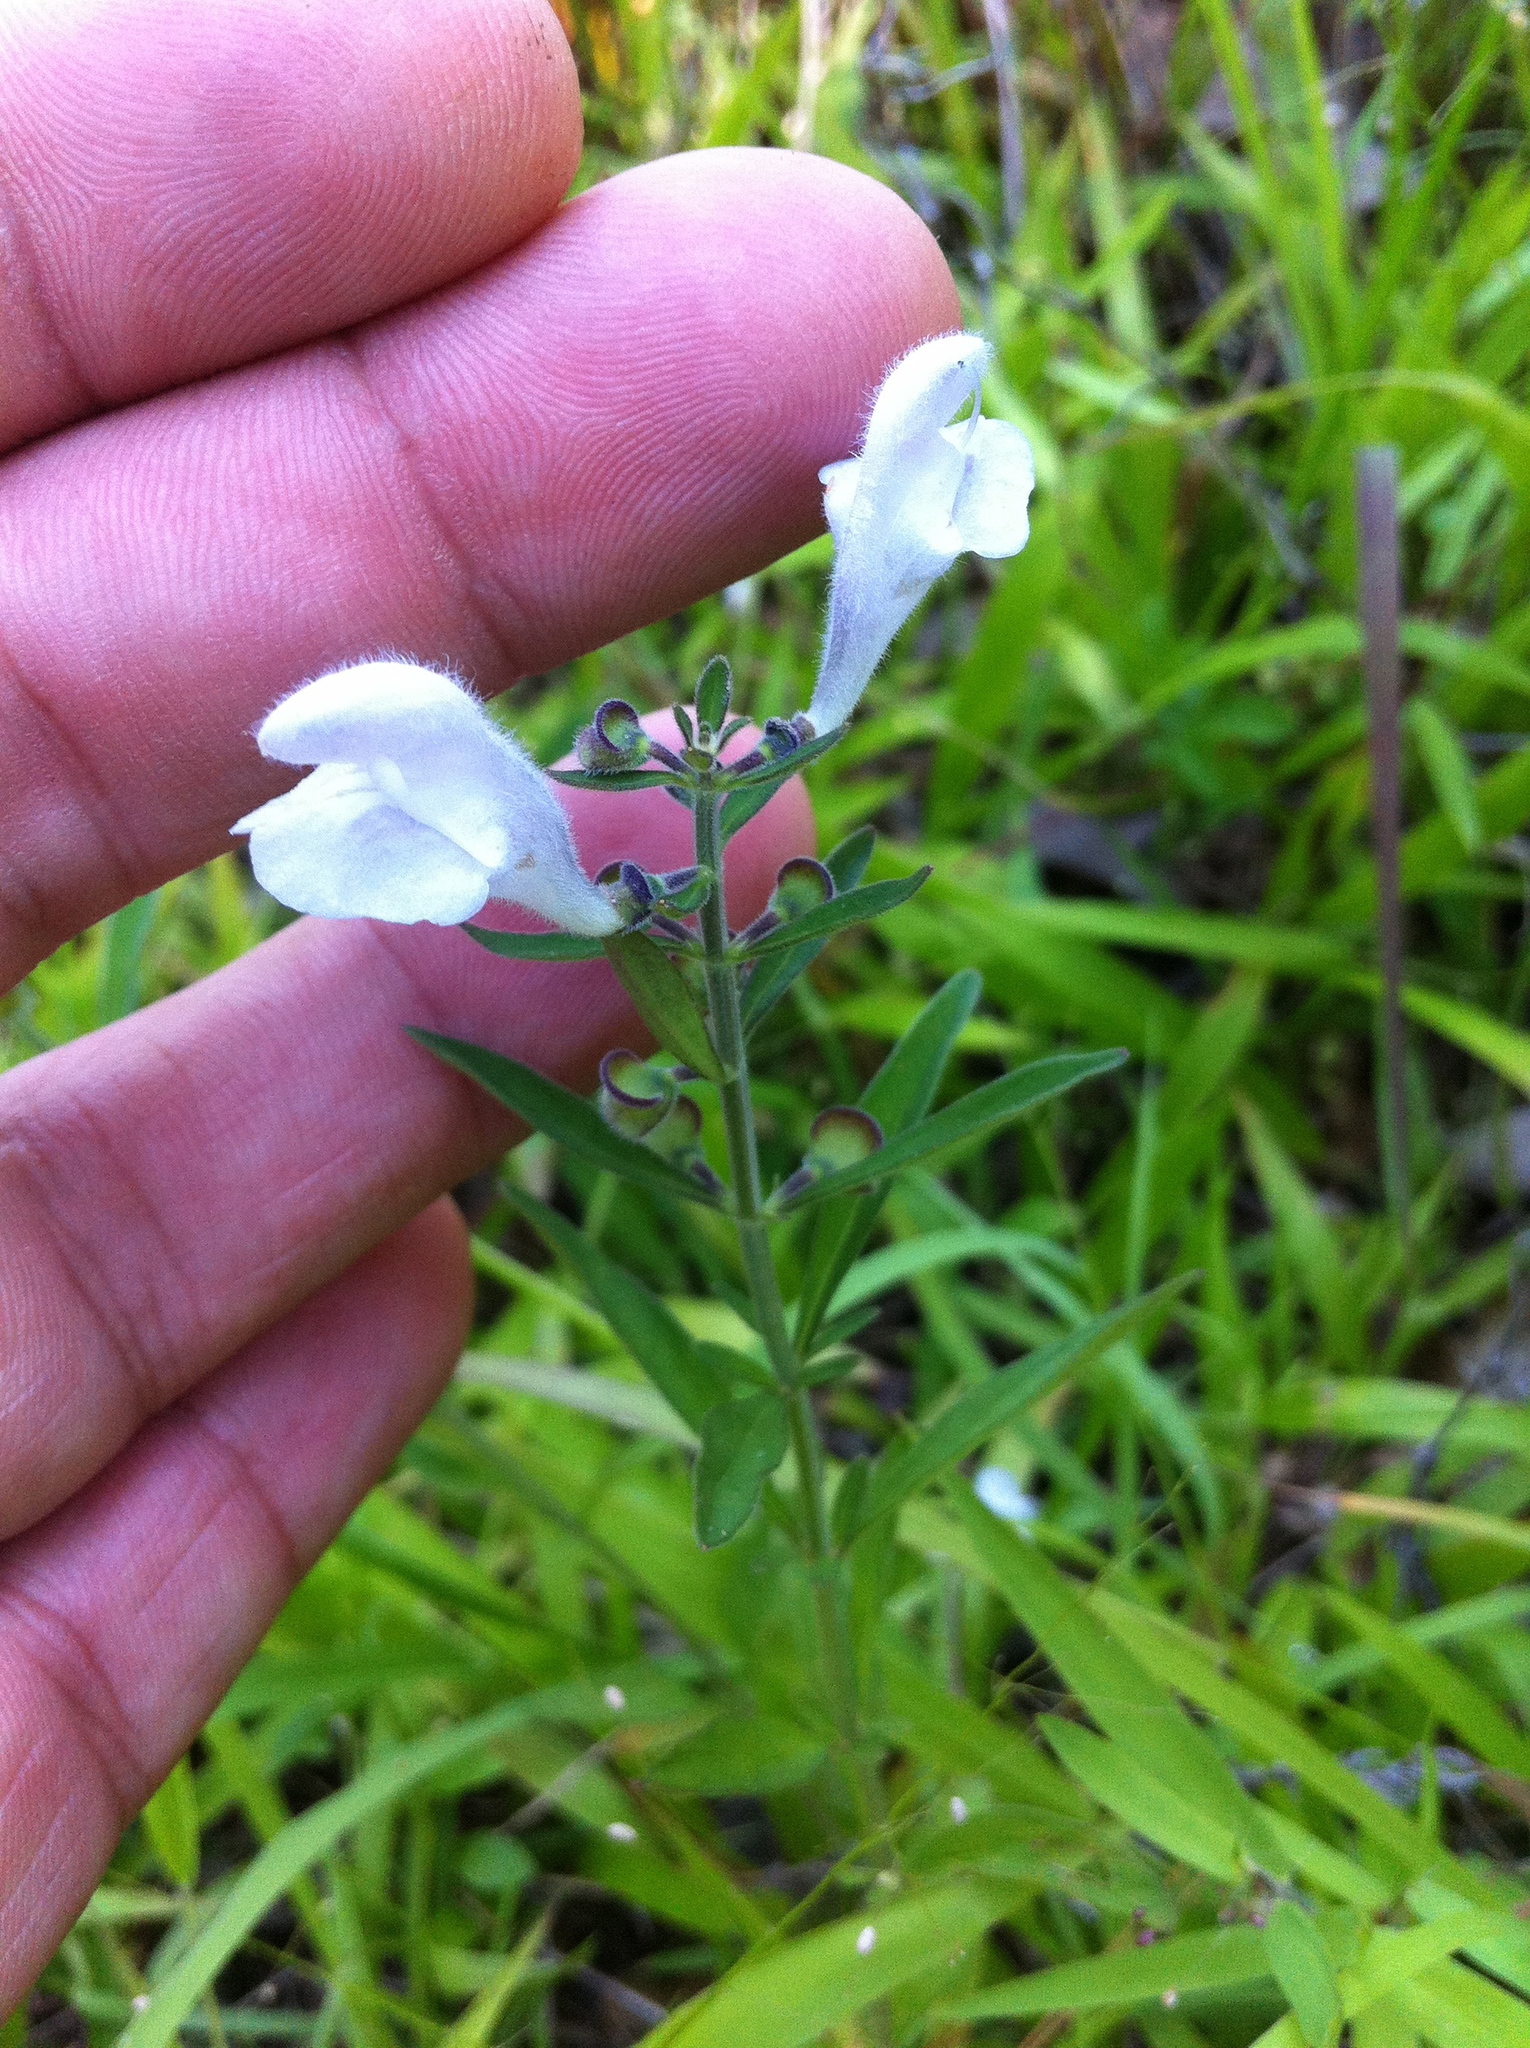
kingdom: Plantae
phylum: Tracheophyta
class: Magnoliopsida
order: Lamiales
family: Lamiaceae
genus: Scutellaria
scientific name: Scutellaria integrifolia
